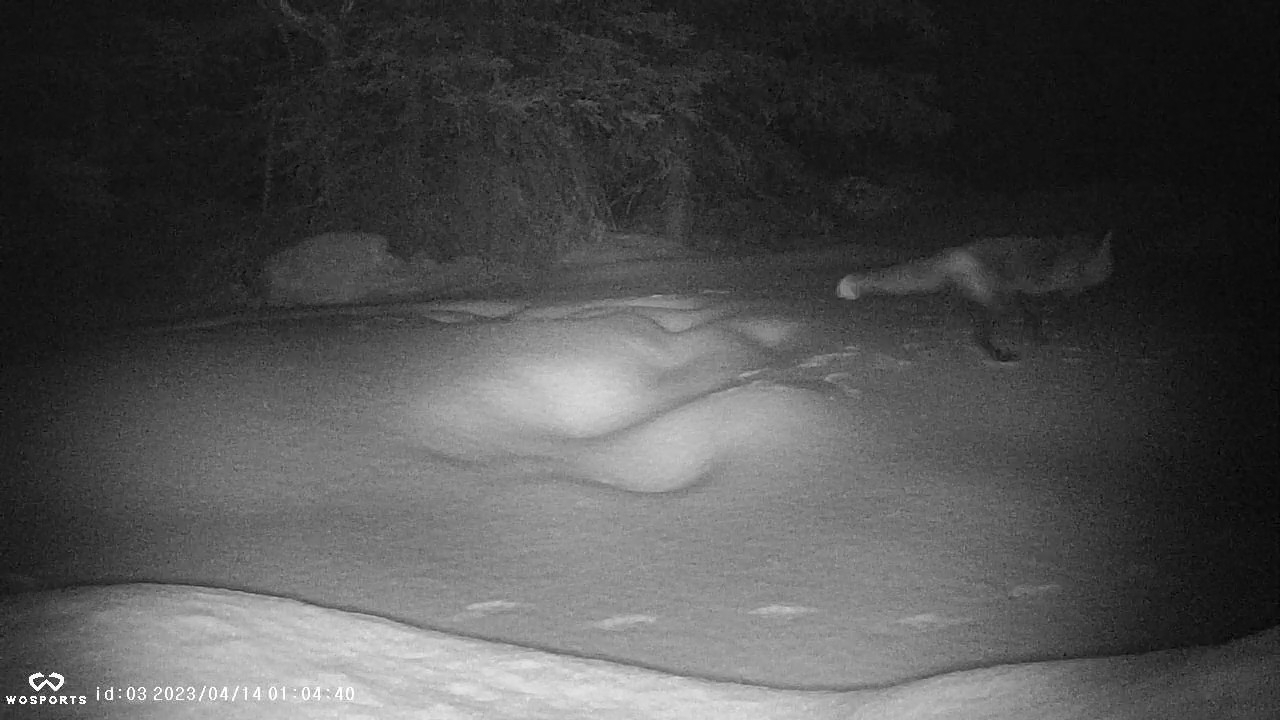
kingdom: Animalia
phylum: Chordata
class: Mammalia
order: Carnivora
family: Canidae
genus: Vulpes
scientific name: Vulpes vulpes
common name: Red fox
